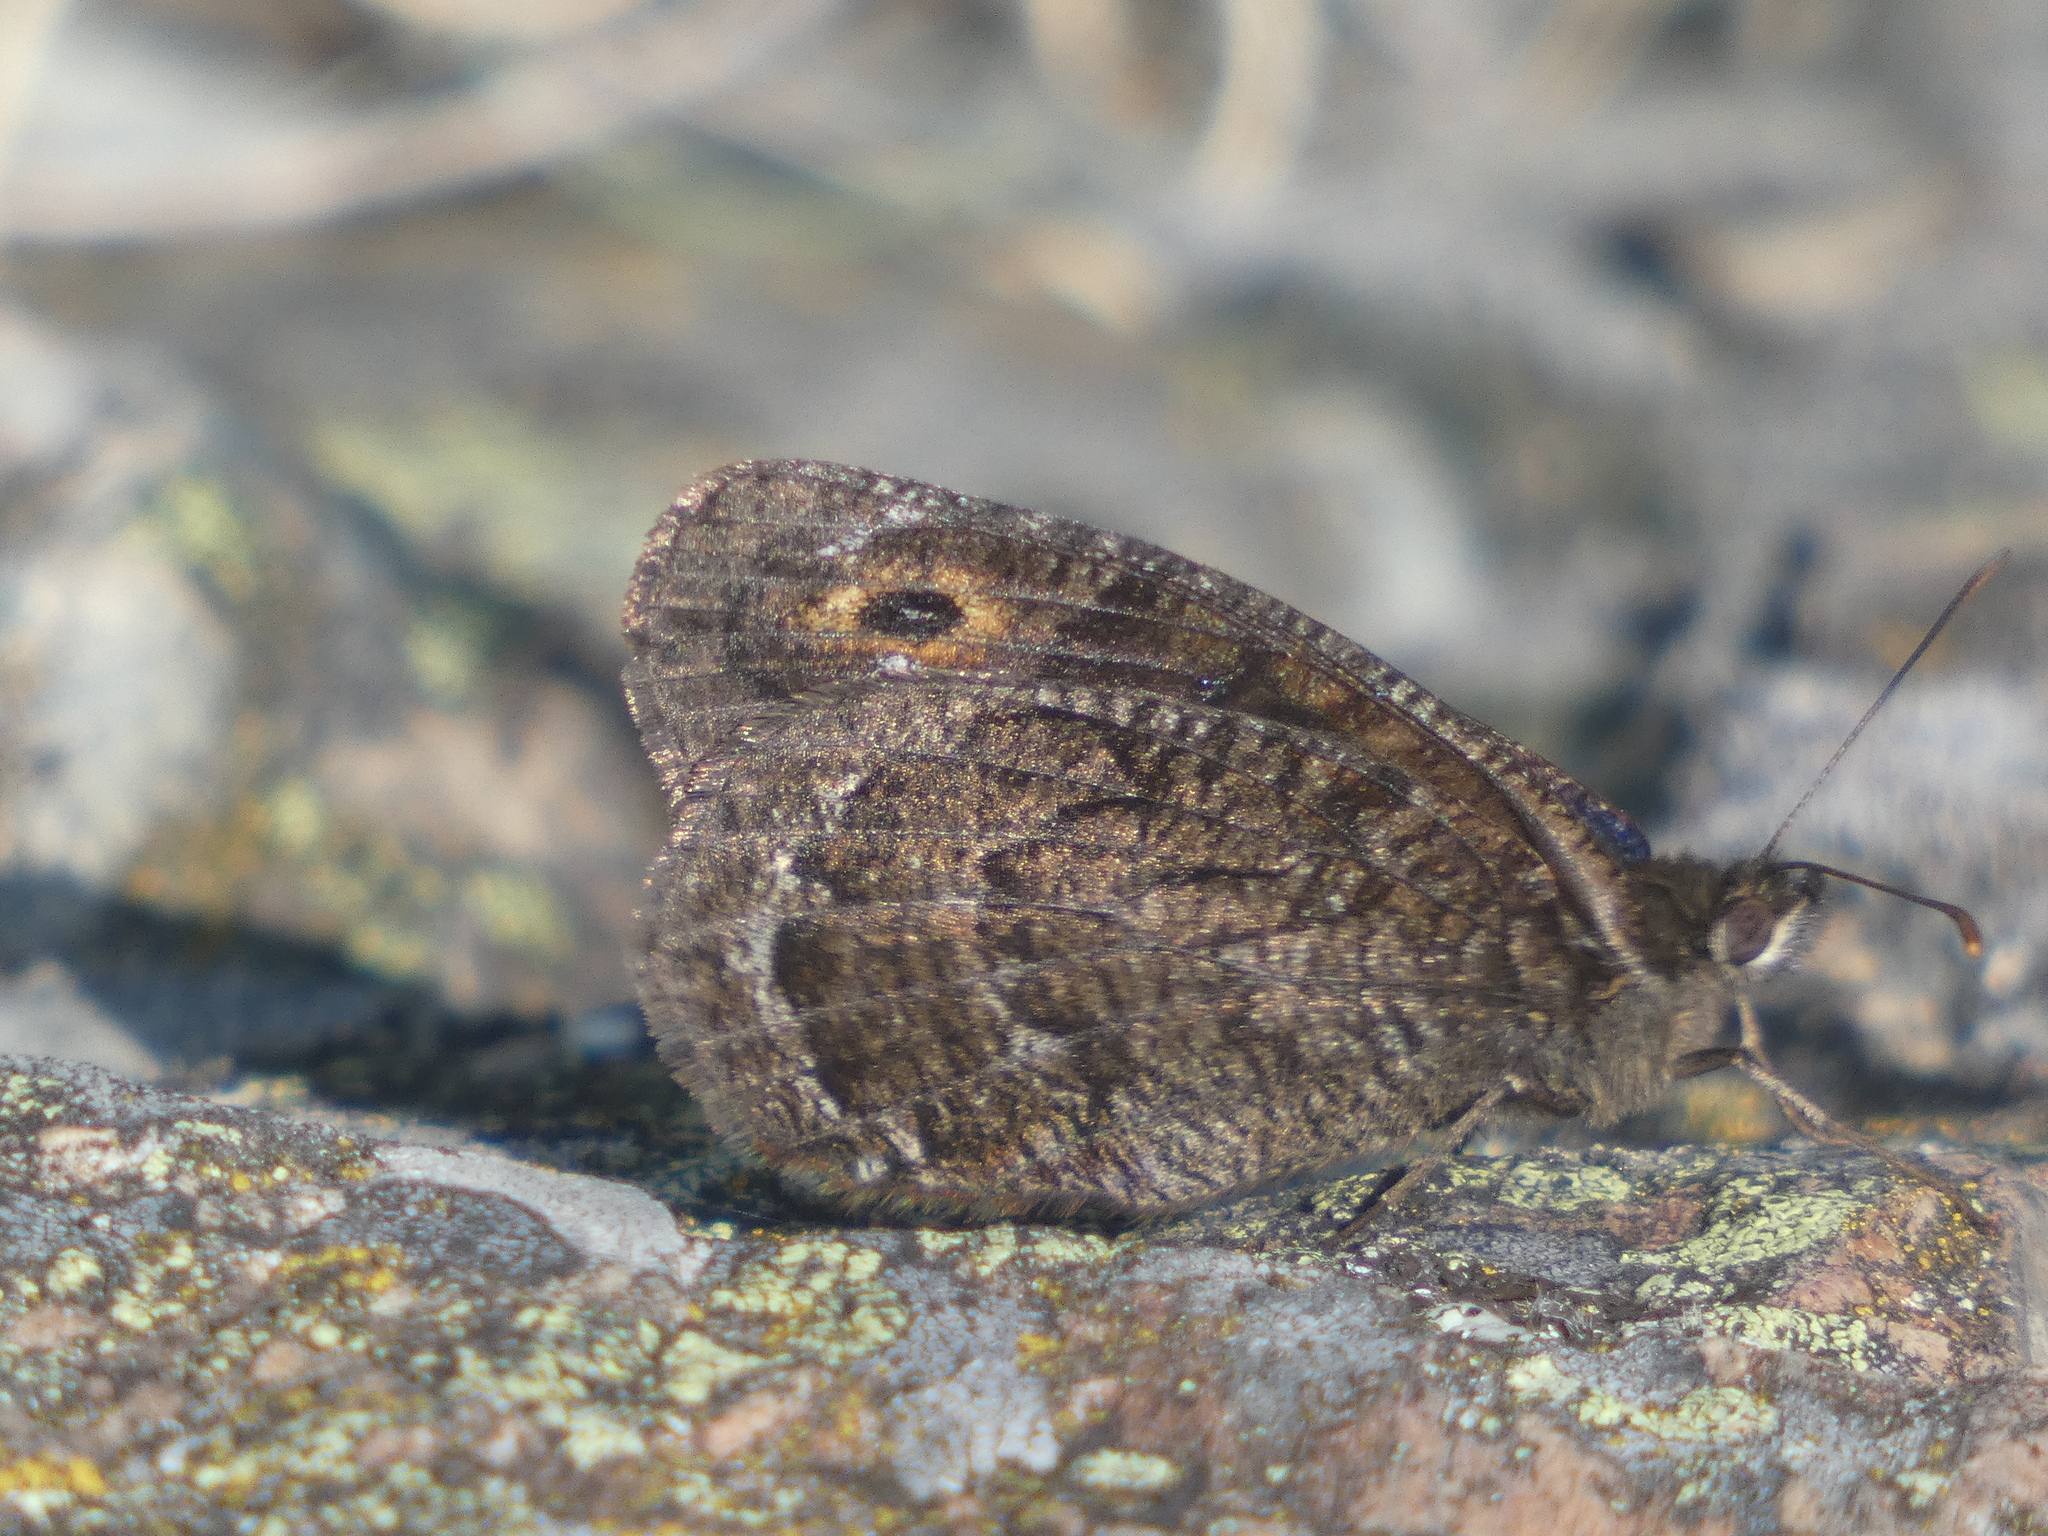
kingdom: Animalia
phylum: Arthropoda
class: Insecta
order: Lepidoptera
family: Nymphalidae
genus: Satyrus
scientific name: Satyrus actaea
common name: Black satyr
